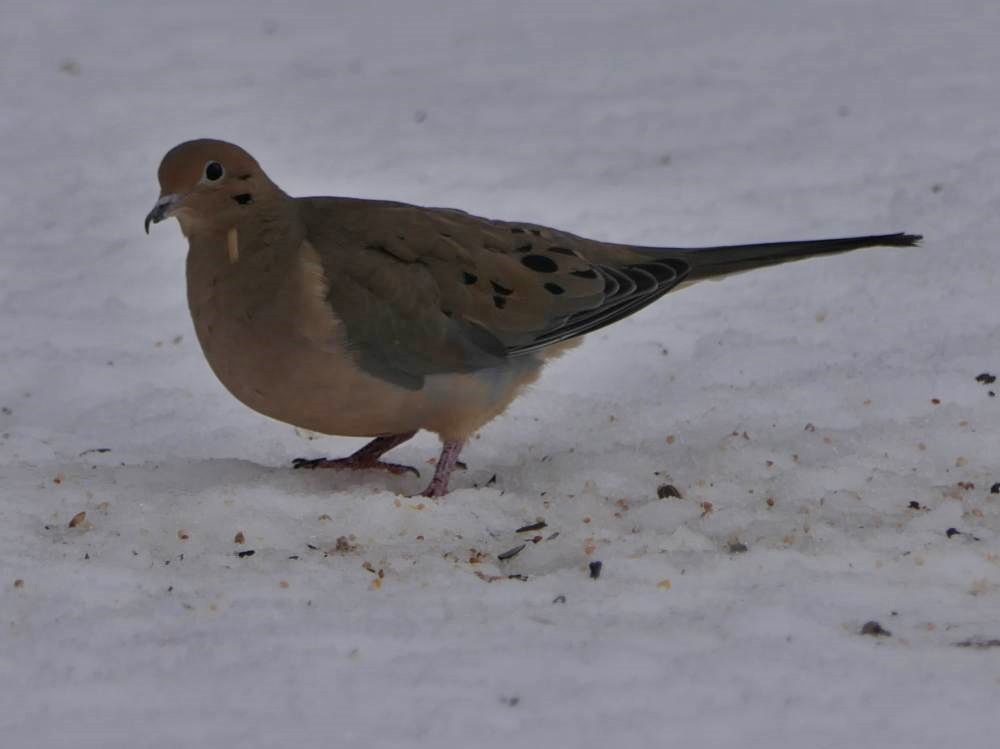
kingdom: Animalia
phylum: Chordata
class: Aves
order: Columbiformes
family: Columbidae
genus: Zenaida
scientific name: Zenaida macroura
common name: Mourning dove
